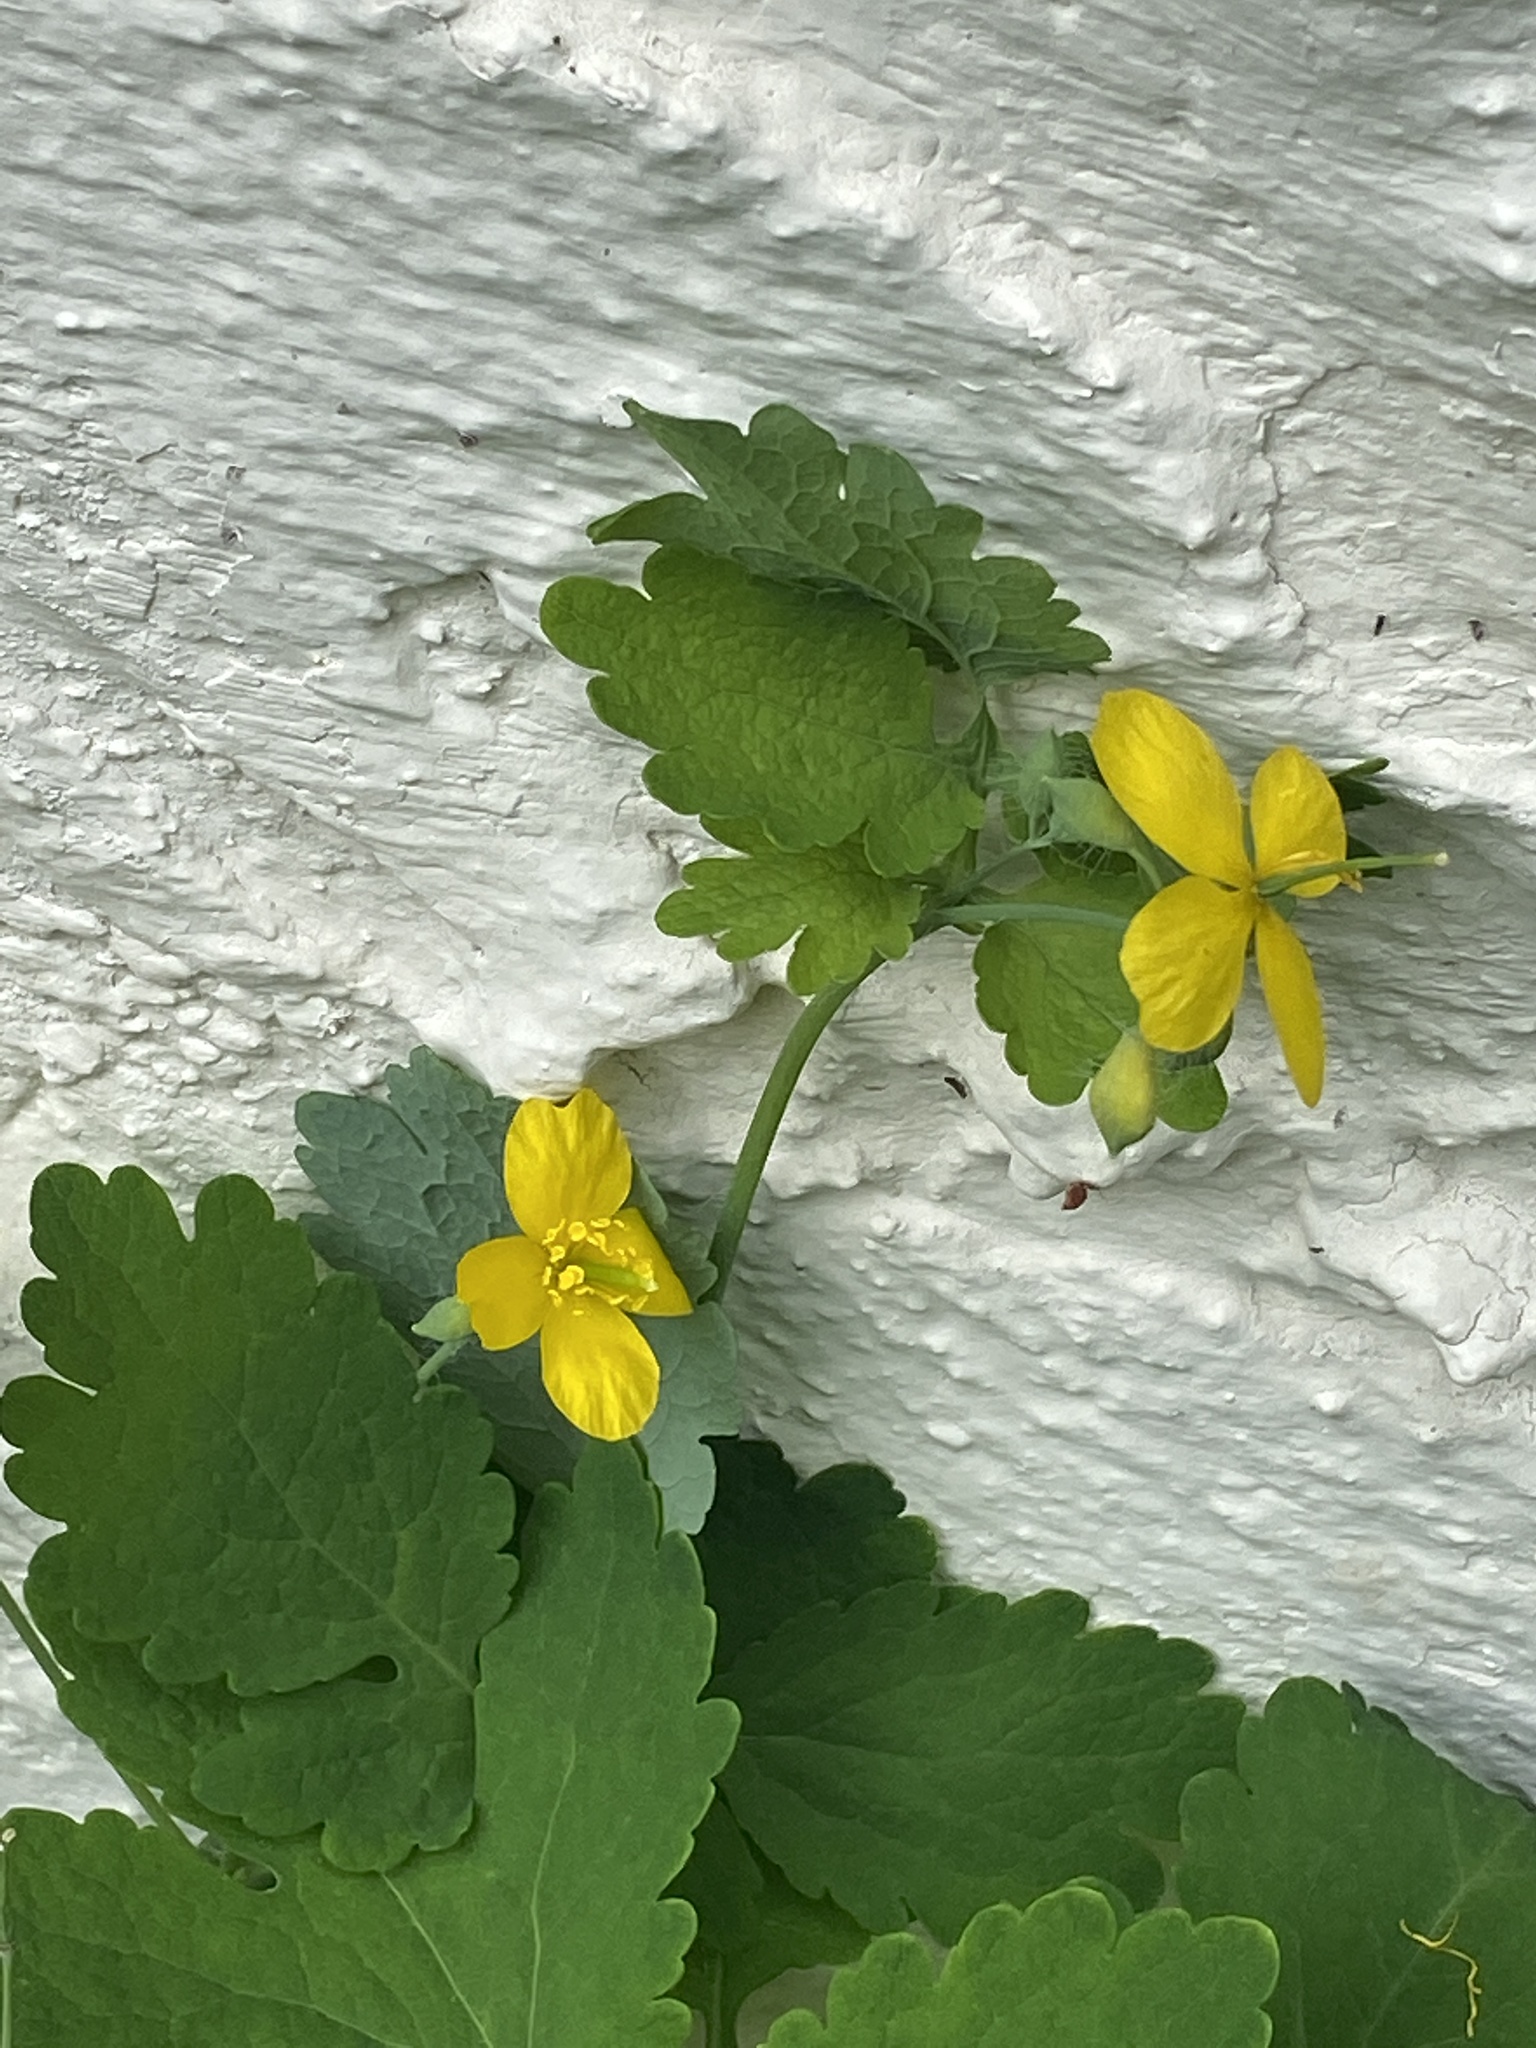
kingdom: Plantae
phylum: Tracheophyta
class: Magnoliopsida
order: Ranunculales
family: Papaveraceae
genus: Chelidonium
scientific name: Chelidonium majus
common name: Greater celandine
